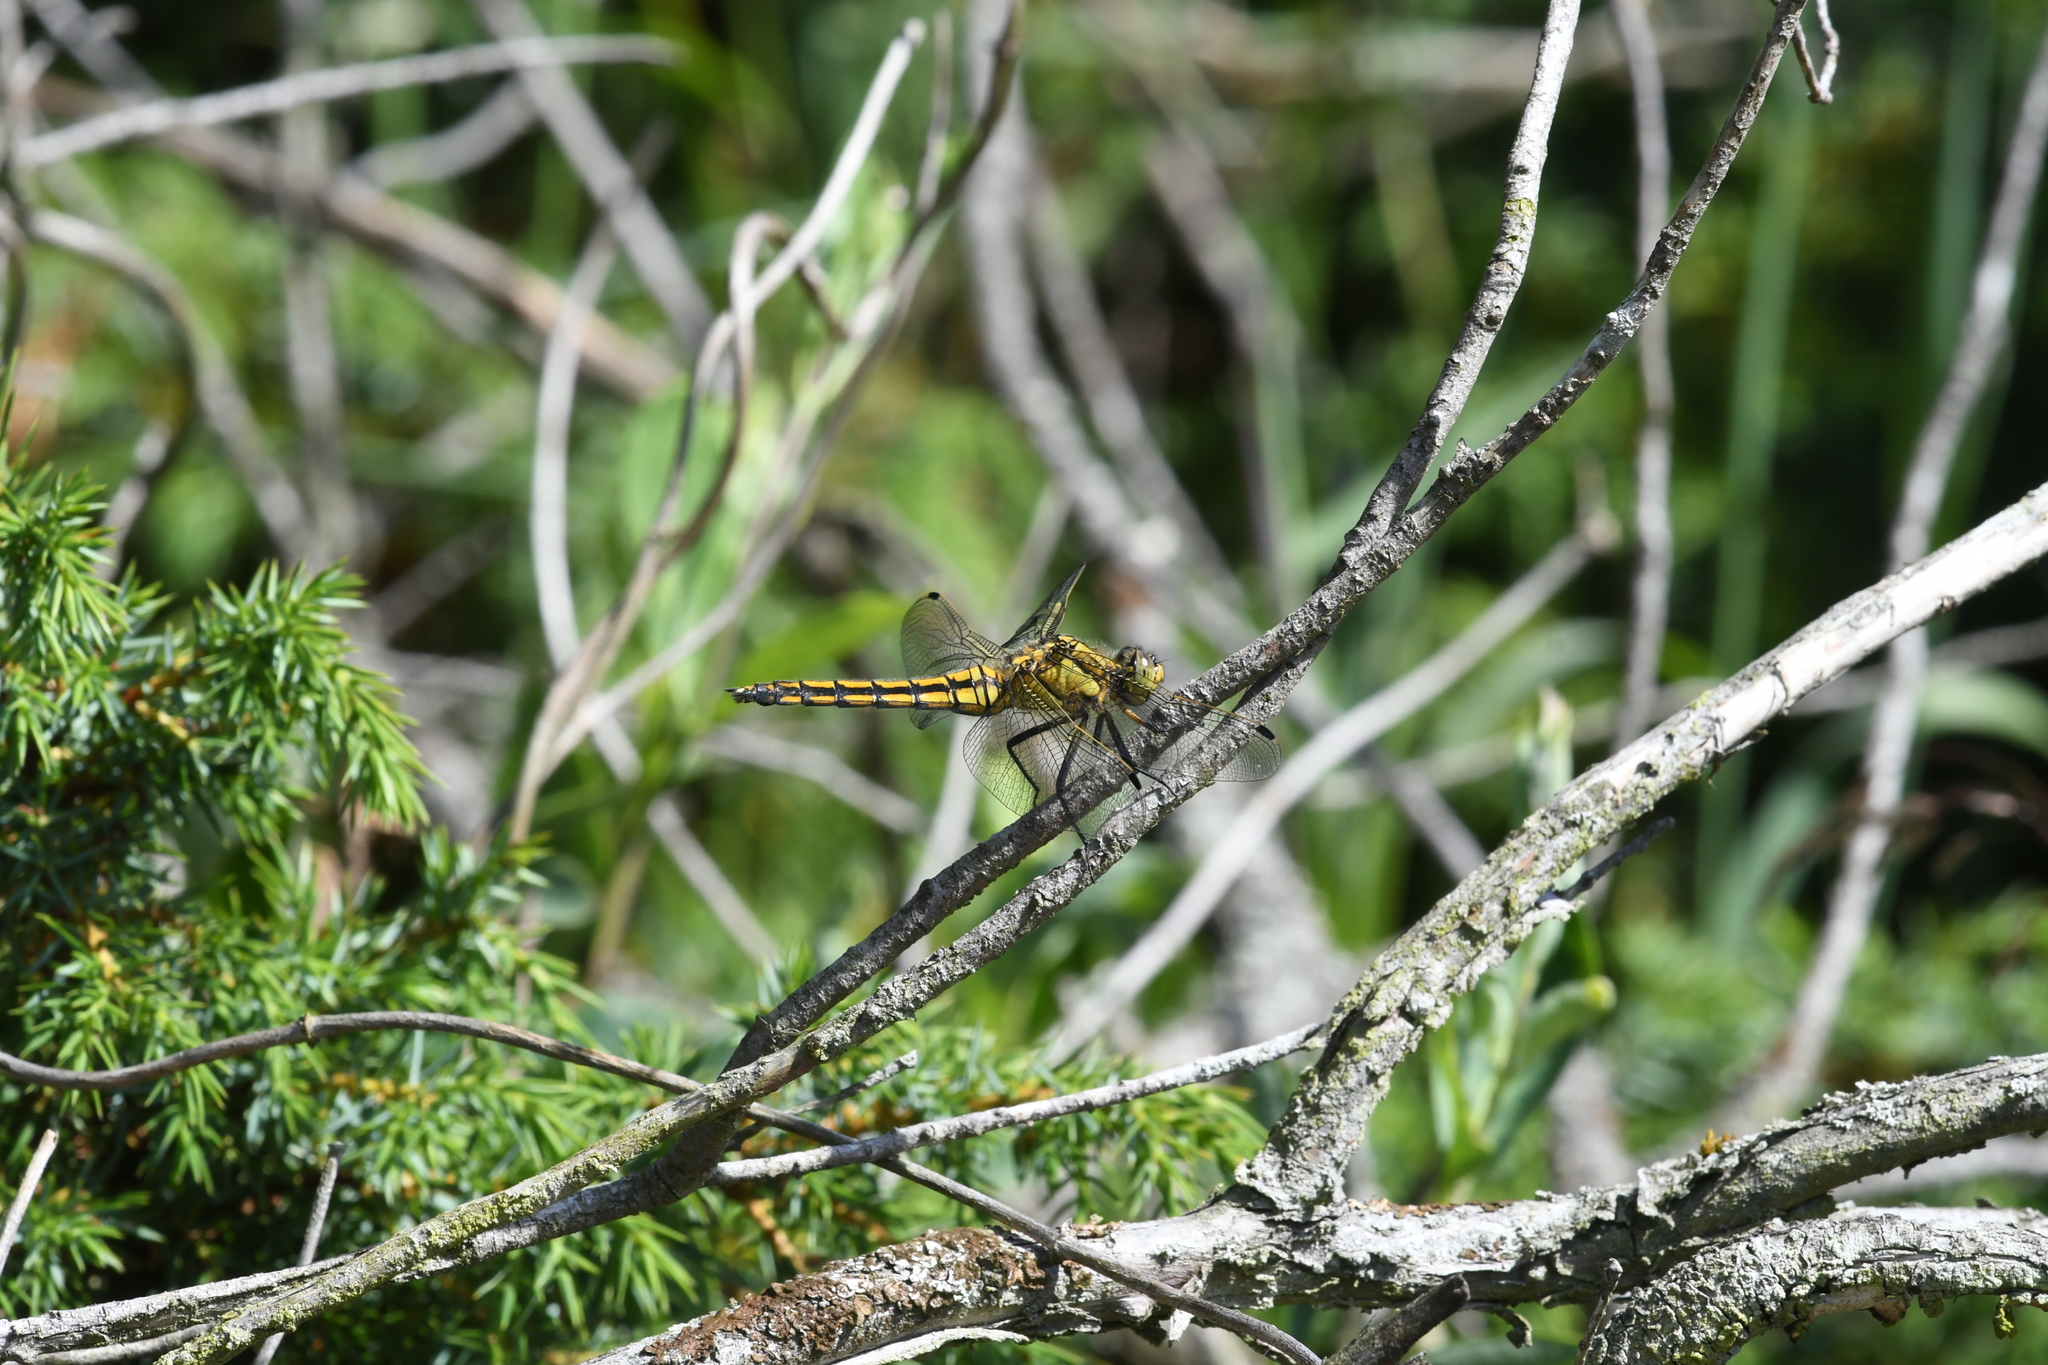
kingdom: Animalia
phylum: Arthropoda
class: Insecta
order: Odonata
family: Libellulidae
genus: Orthetrum
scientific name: Orthetrum cancellatum
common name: Black-tailed skimmer
